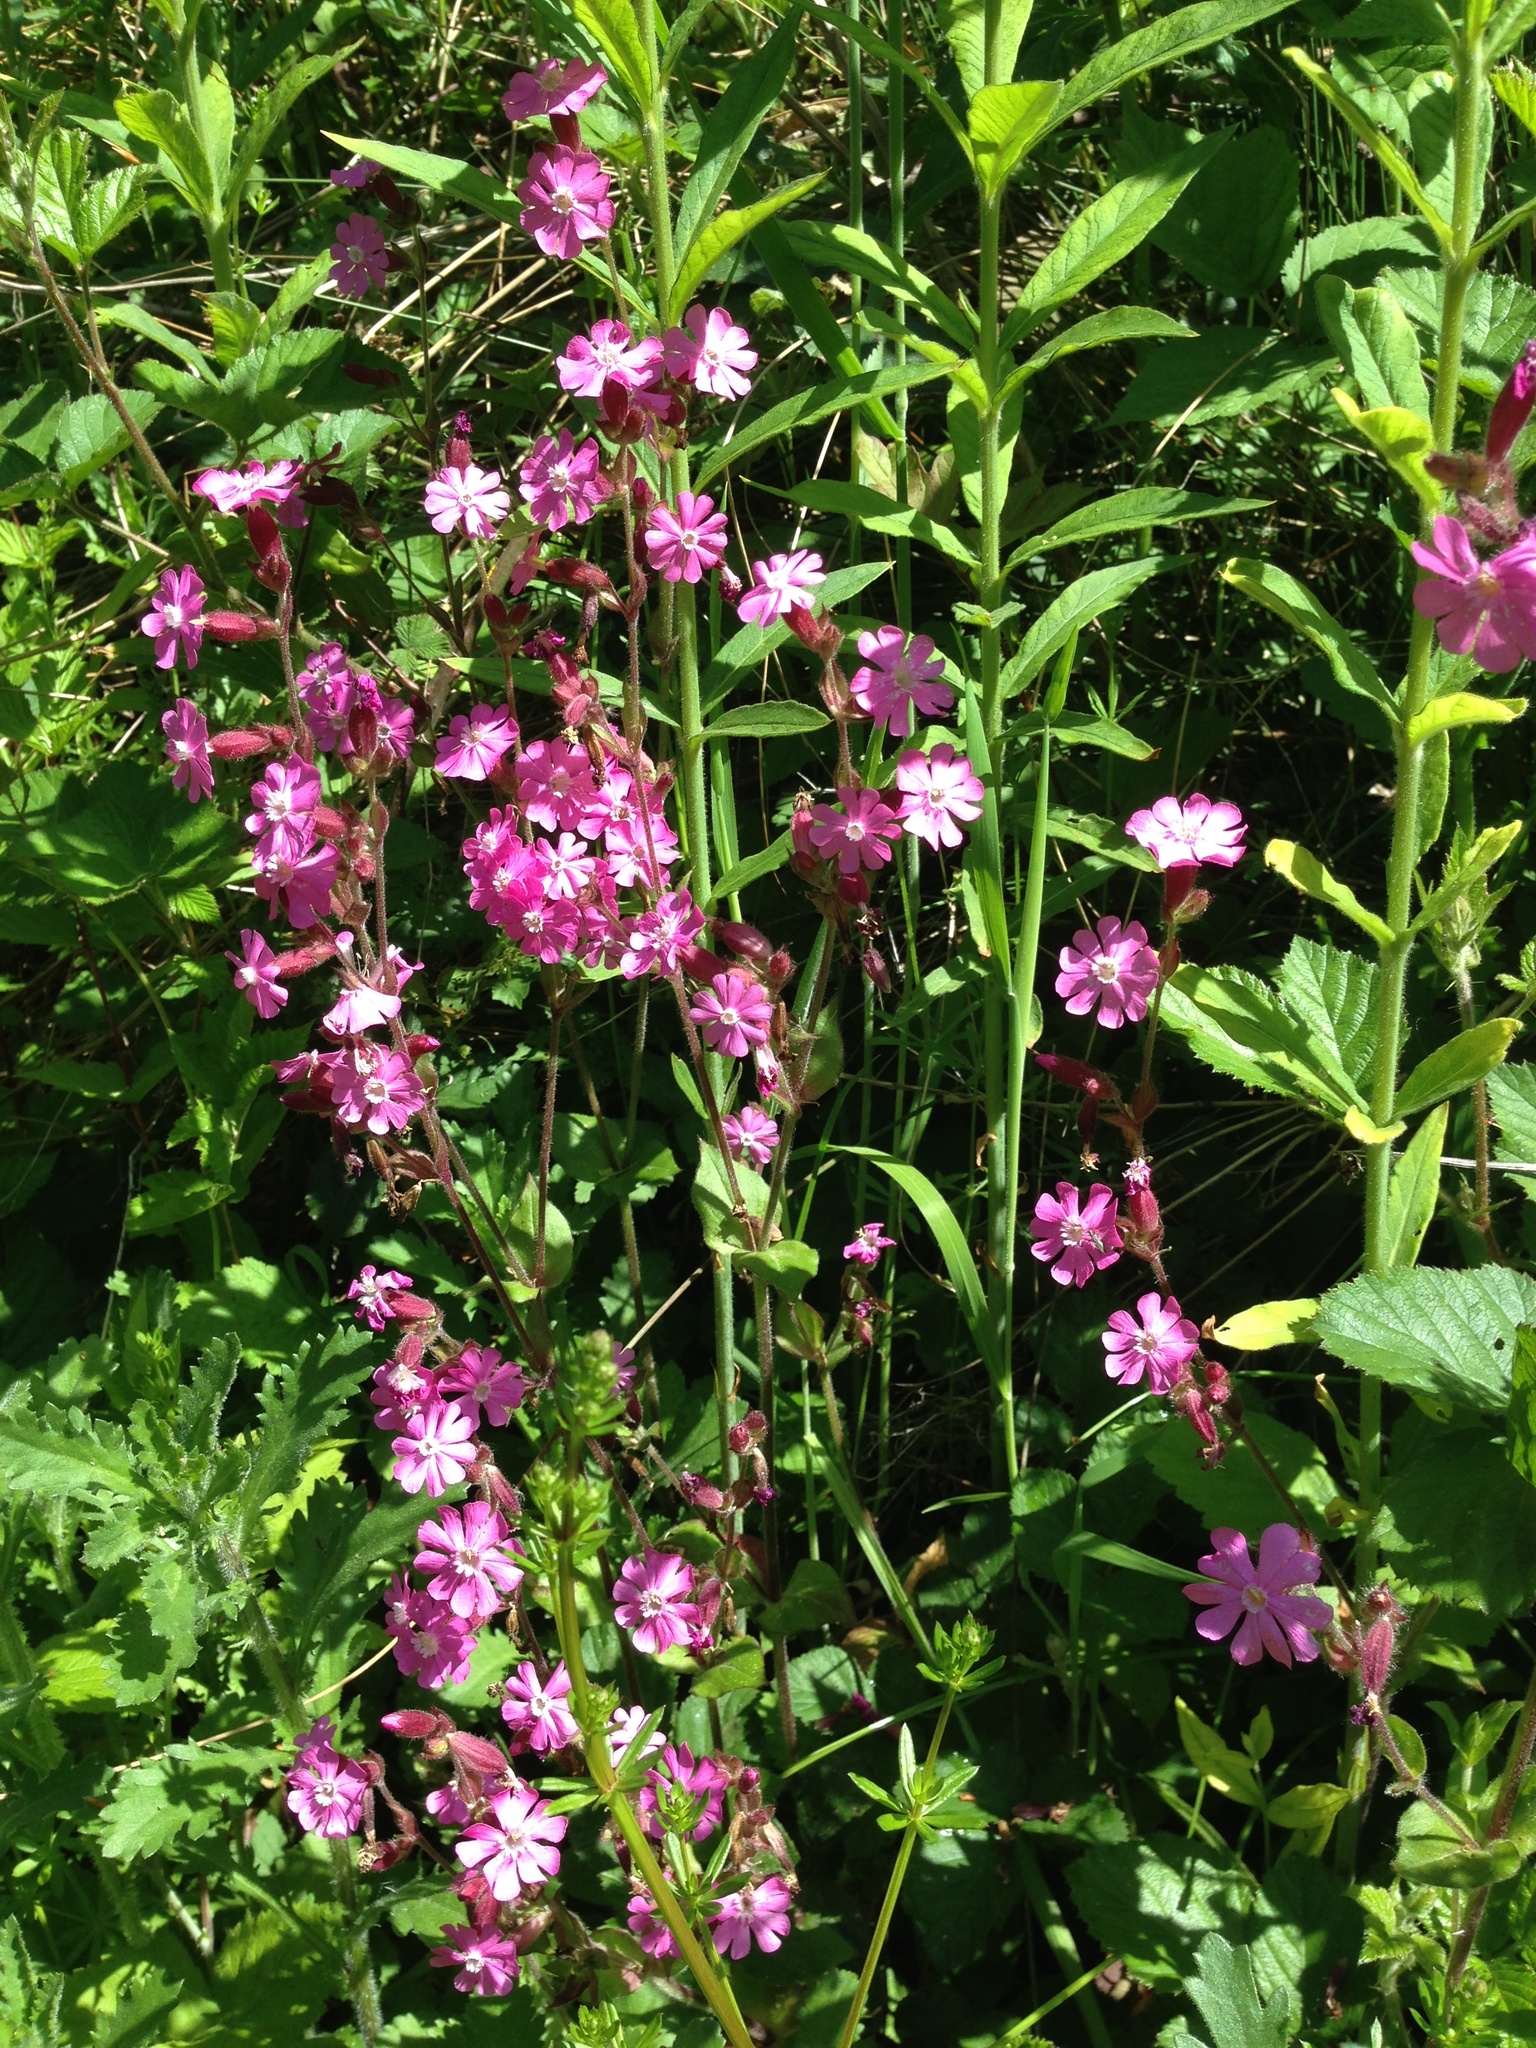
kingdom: Plantae
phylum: Tracheophyta
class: Magnoliopsida
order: Caryophyllales
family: Caryophyllaceae
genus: Silene
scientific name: Silene dioica
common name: Red campion
